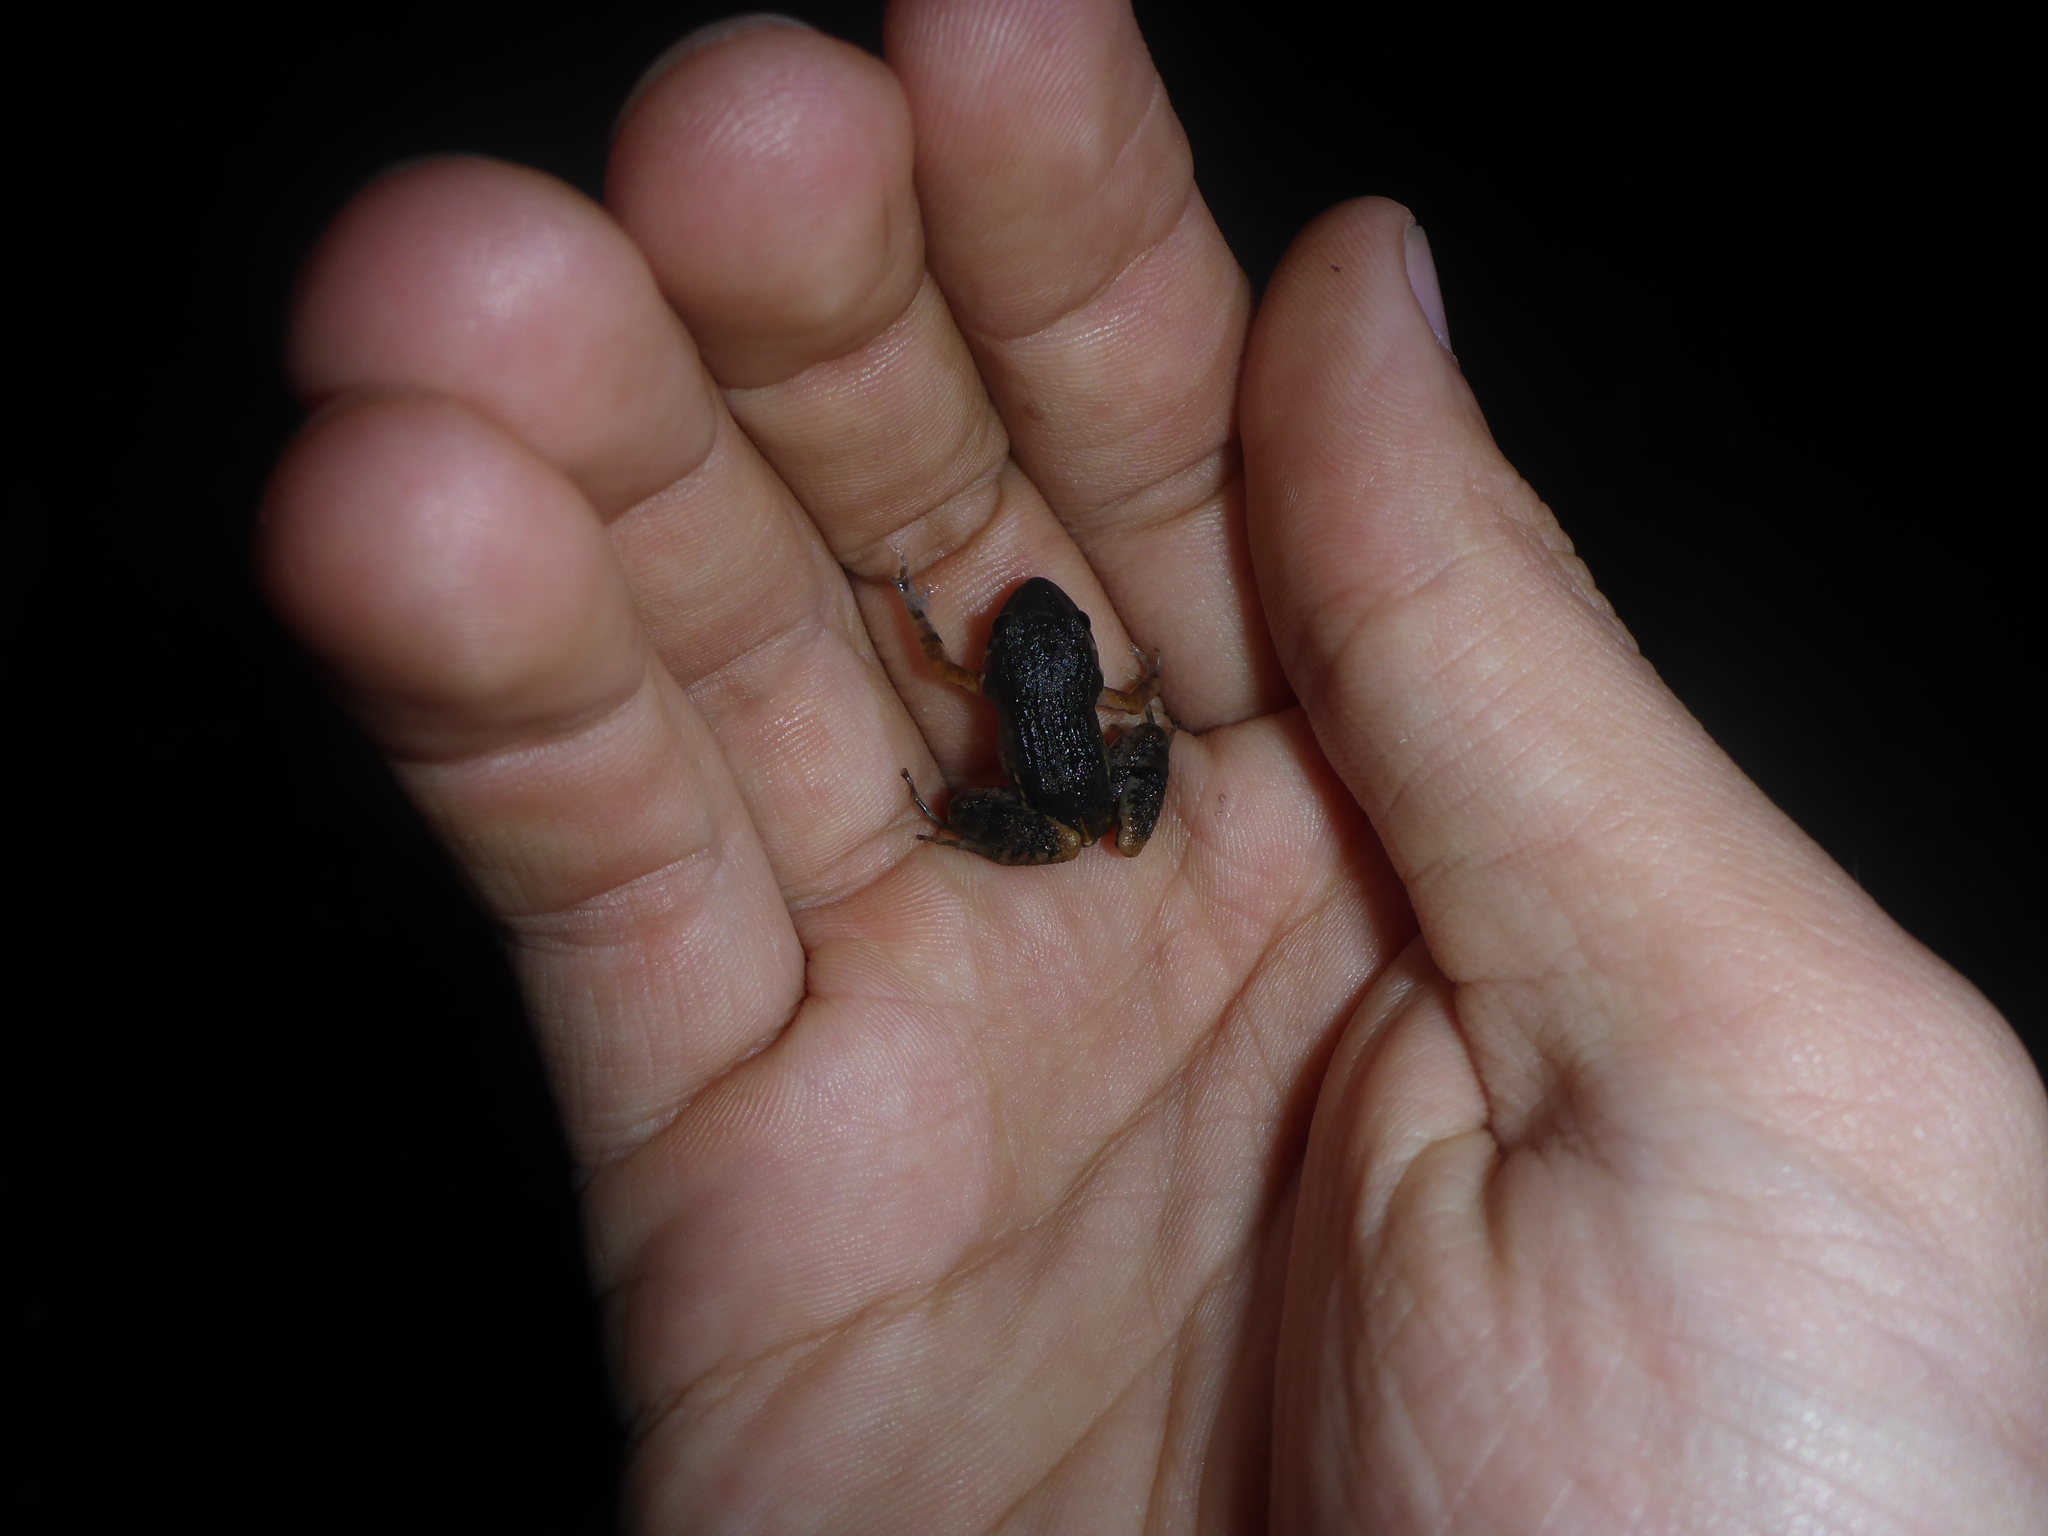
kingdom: Animalia
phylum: Chordata
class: Amphibia
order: Anura
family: Leptodactylidae
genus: Adenomera
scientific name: Adenomera andreae
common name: Lowland tropical bullfrog
